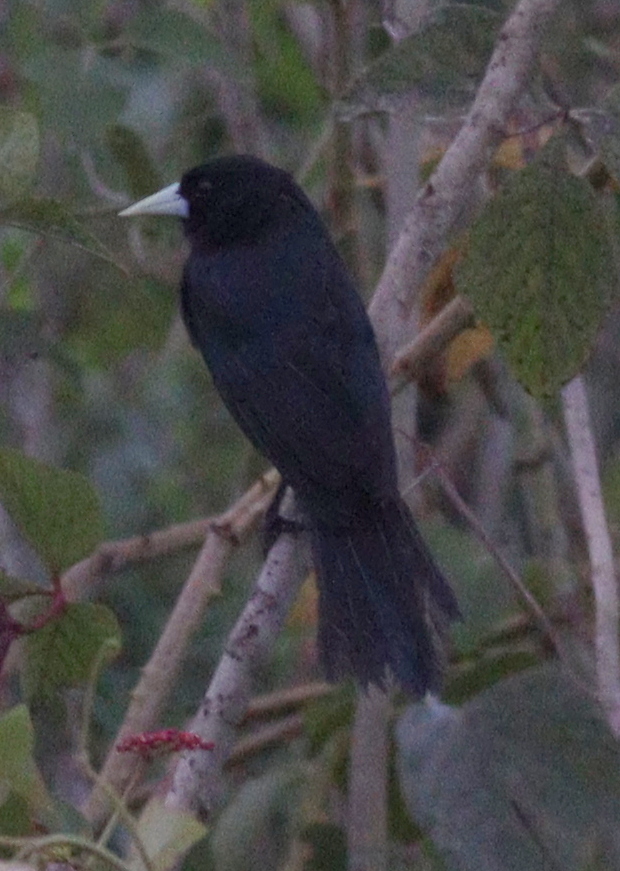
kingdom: Animalia
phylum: Chordata
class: Aves
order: Passeriformes
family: Icteridae
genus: Cacicus
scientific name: Cacicus solitarius
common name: Solitary cacique
